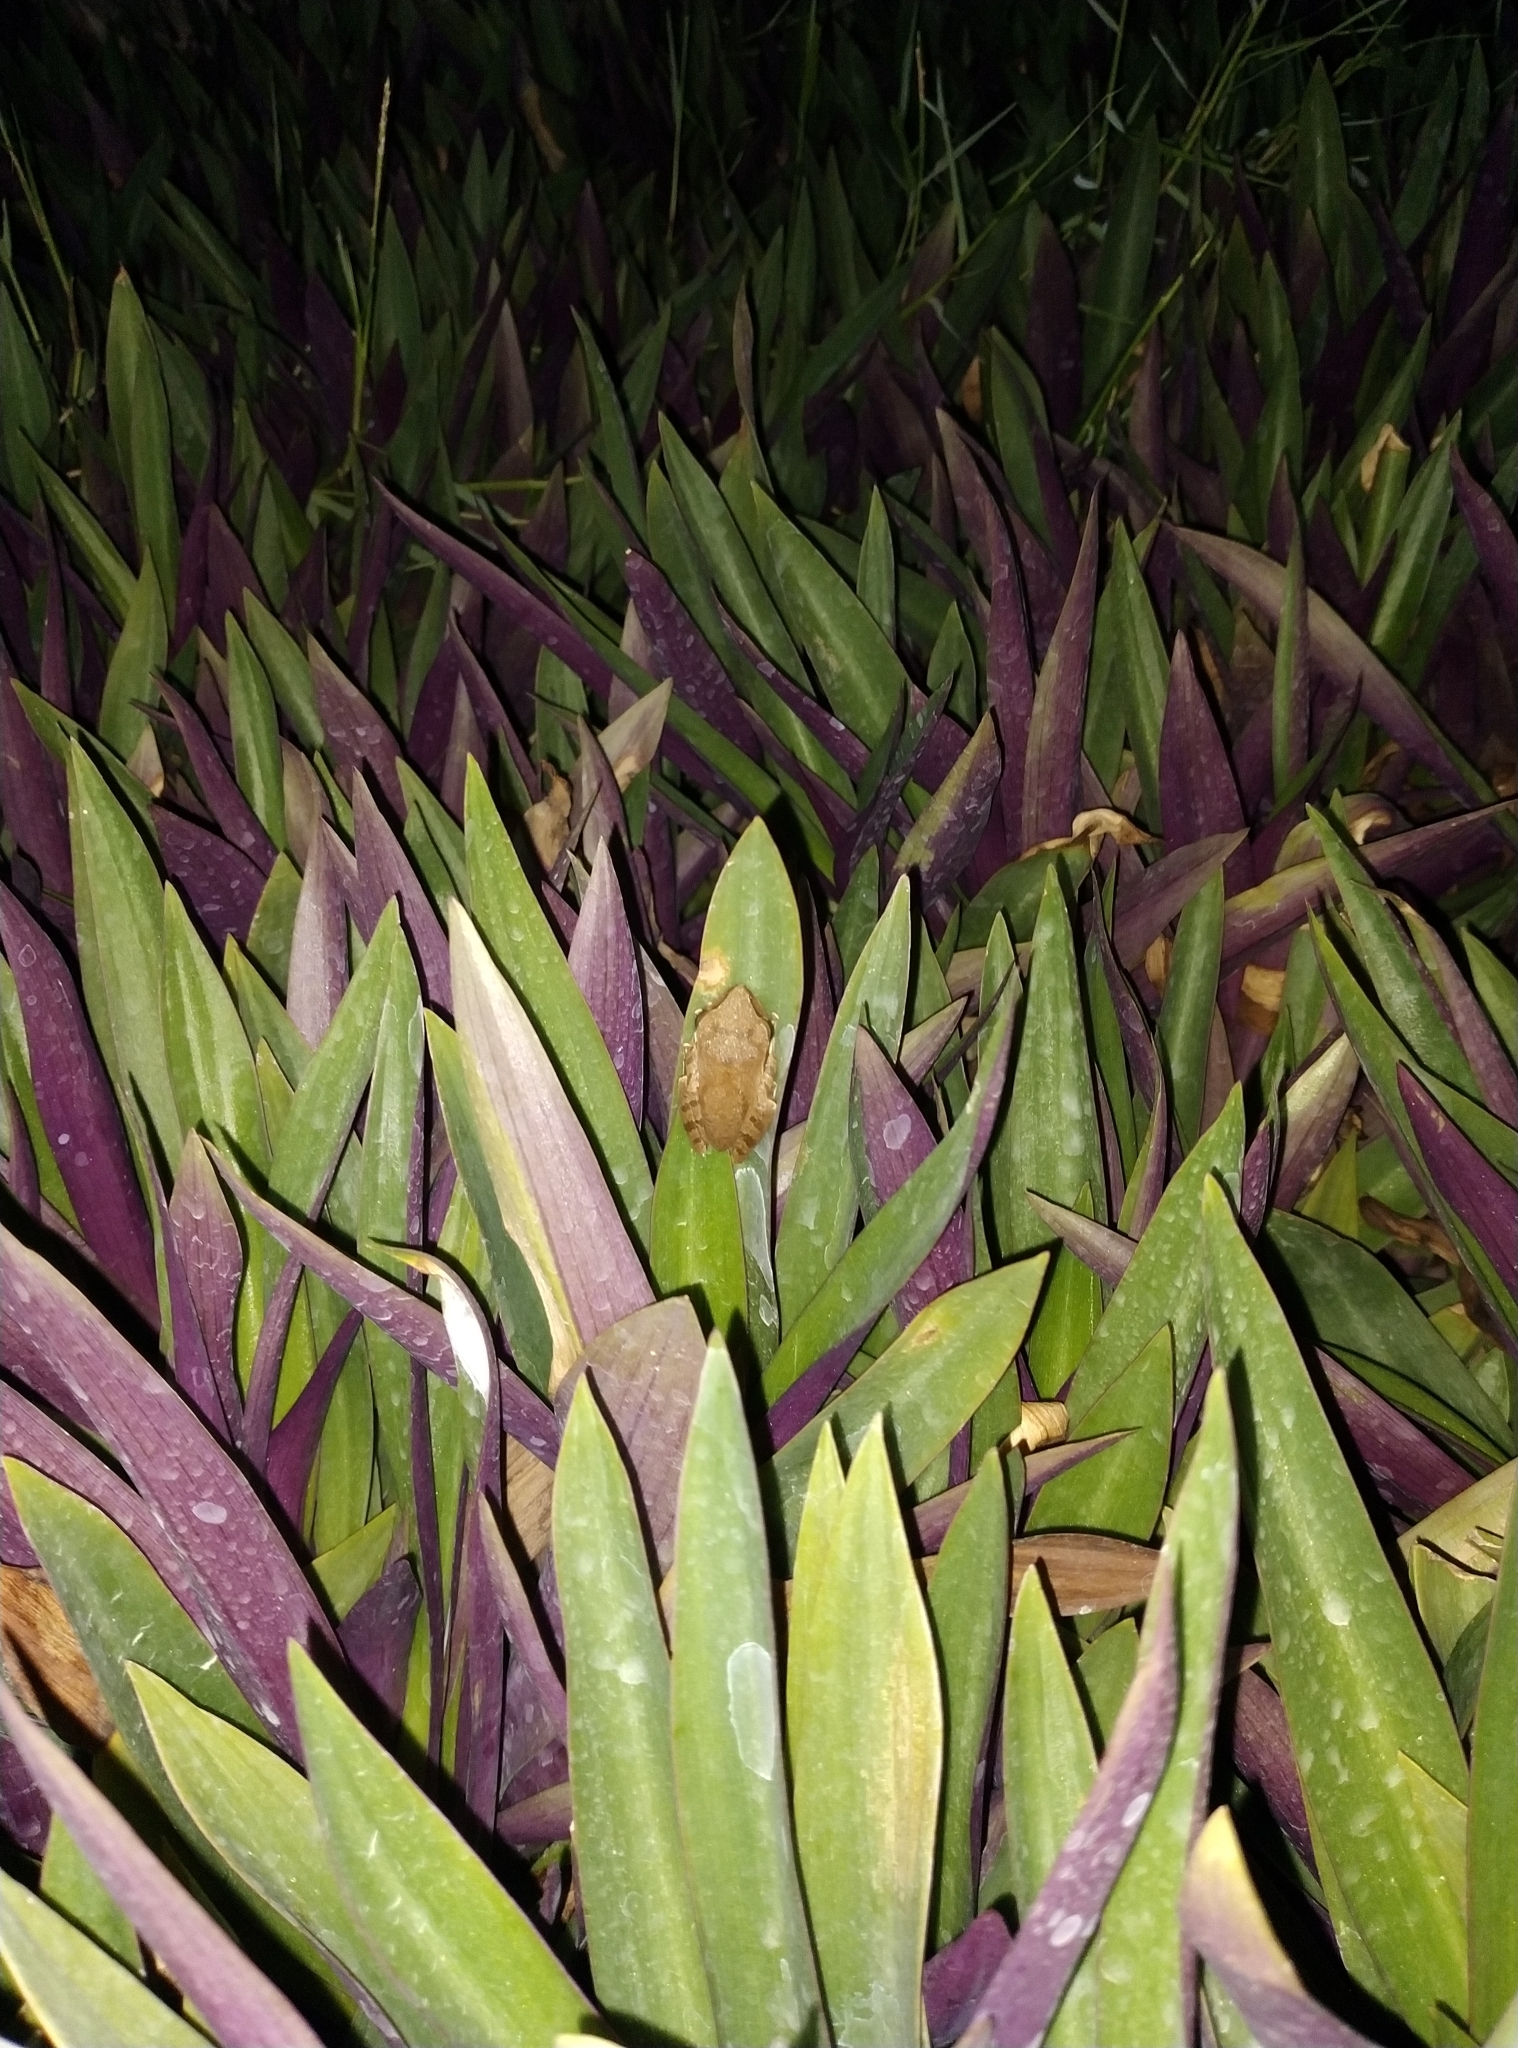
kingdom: Animalia
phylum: Chordata
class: Amphibia
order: Anura
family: Rhacophoridae
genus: Polypedates
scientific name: Polypedates maculatus
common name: Himalayan tree frog
